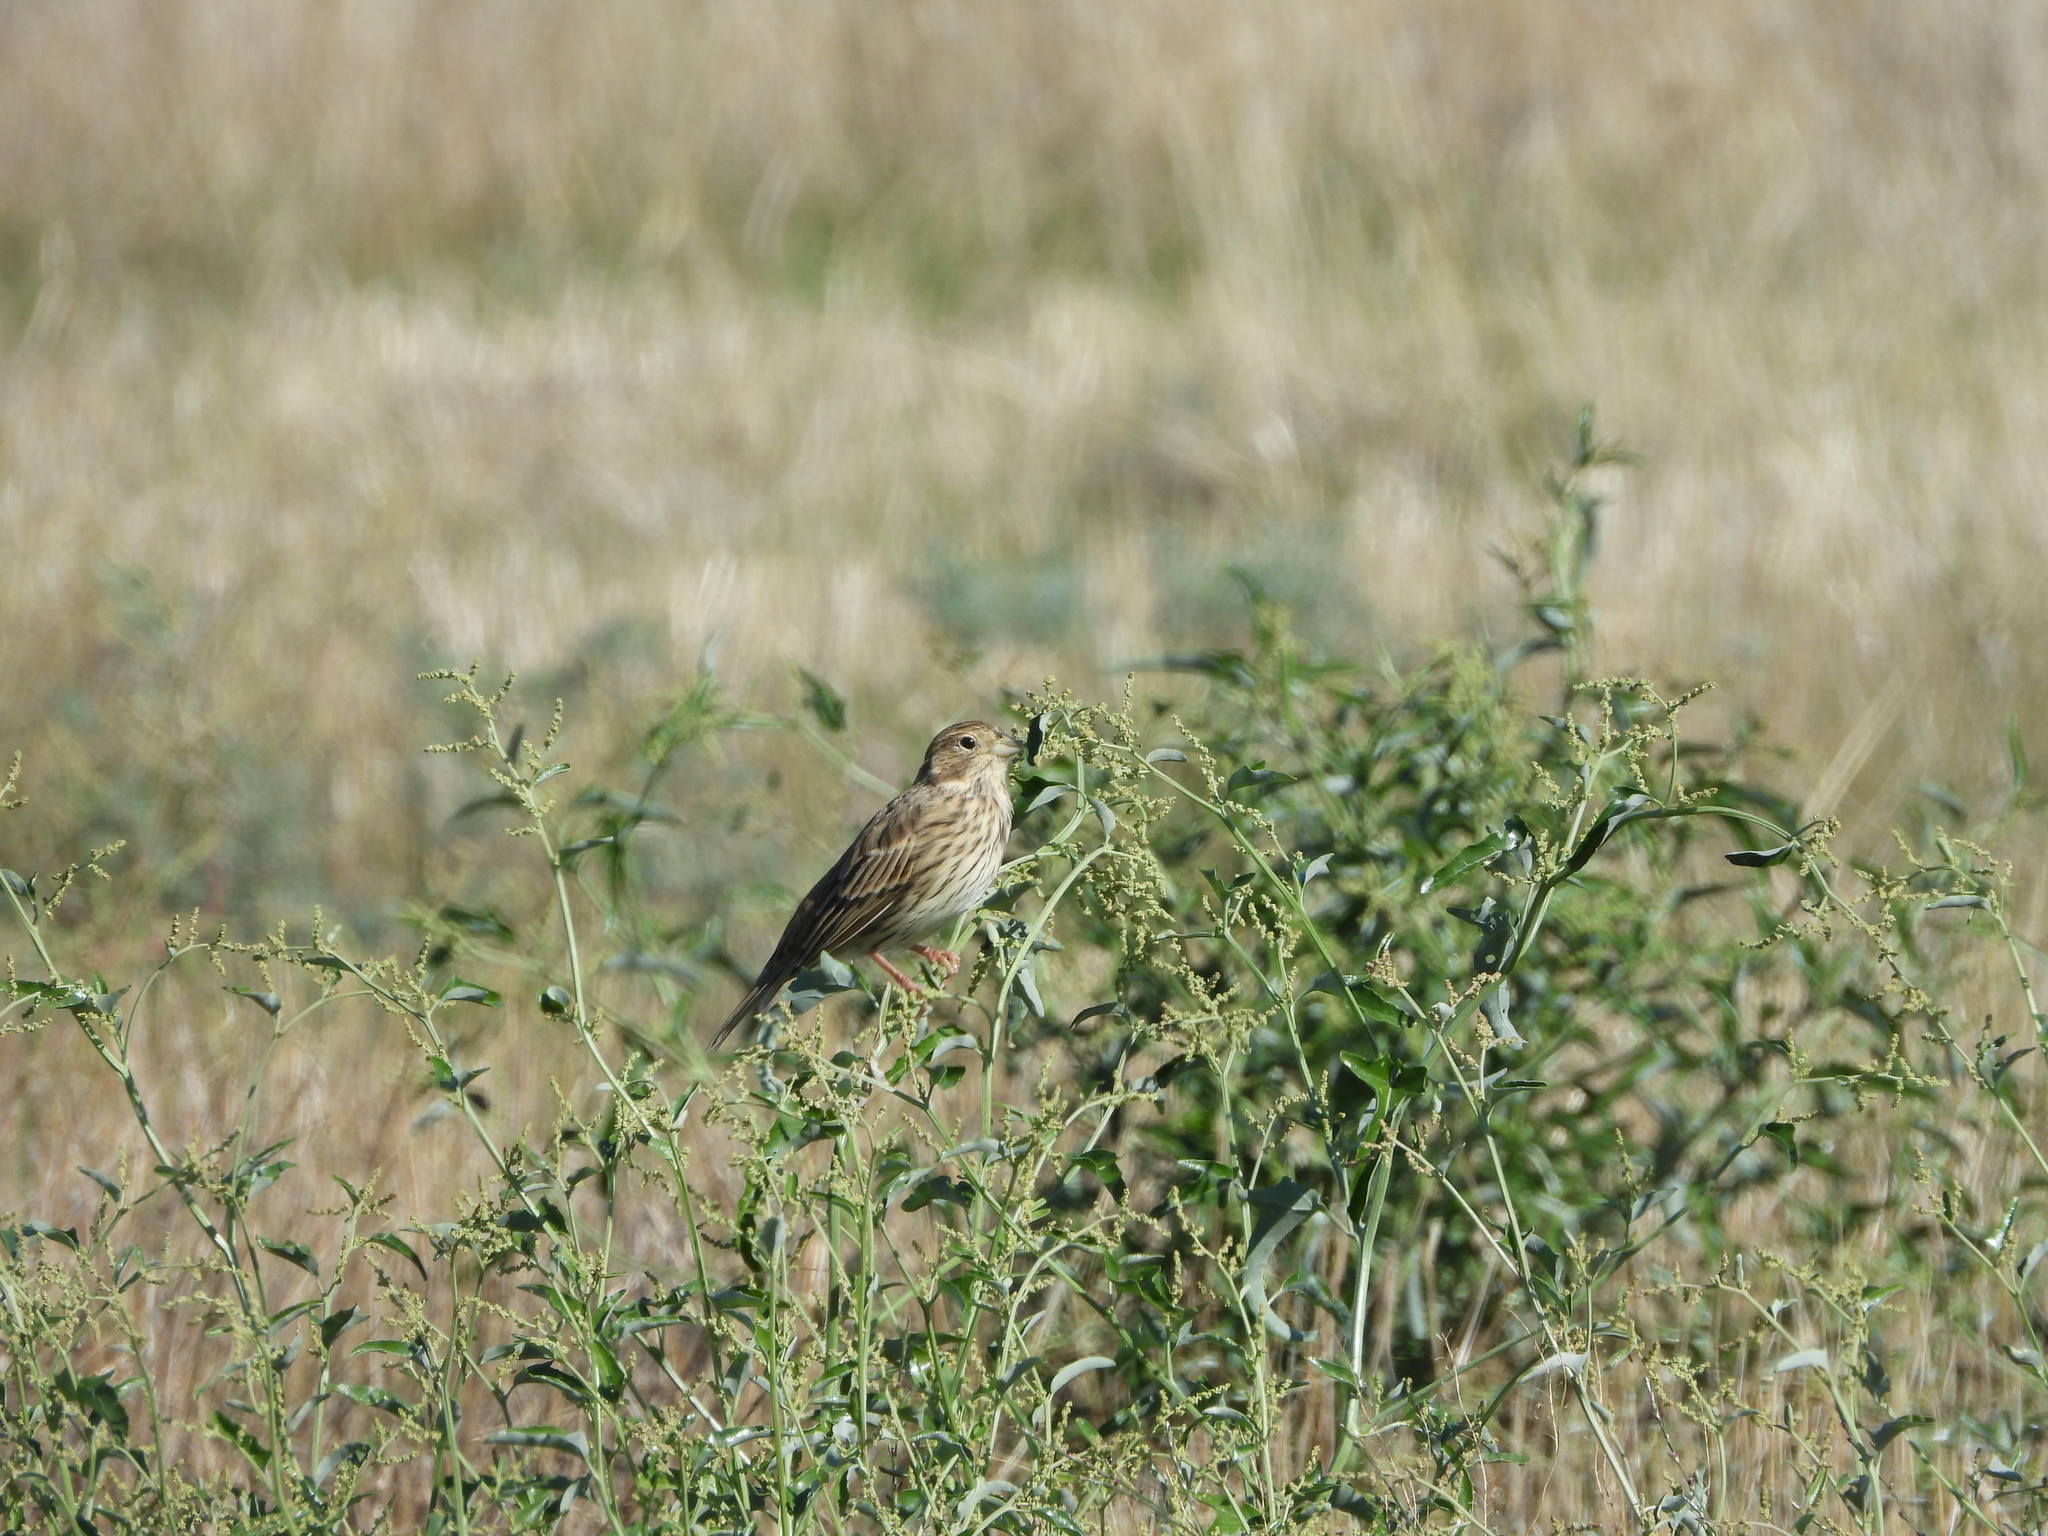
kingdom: Animalia
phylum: Chordata
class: Aves
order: Passeriformes
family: Emberizidae
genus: Emberiza
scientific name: Emberiza calandra
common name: Corn bunting
